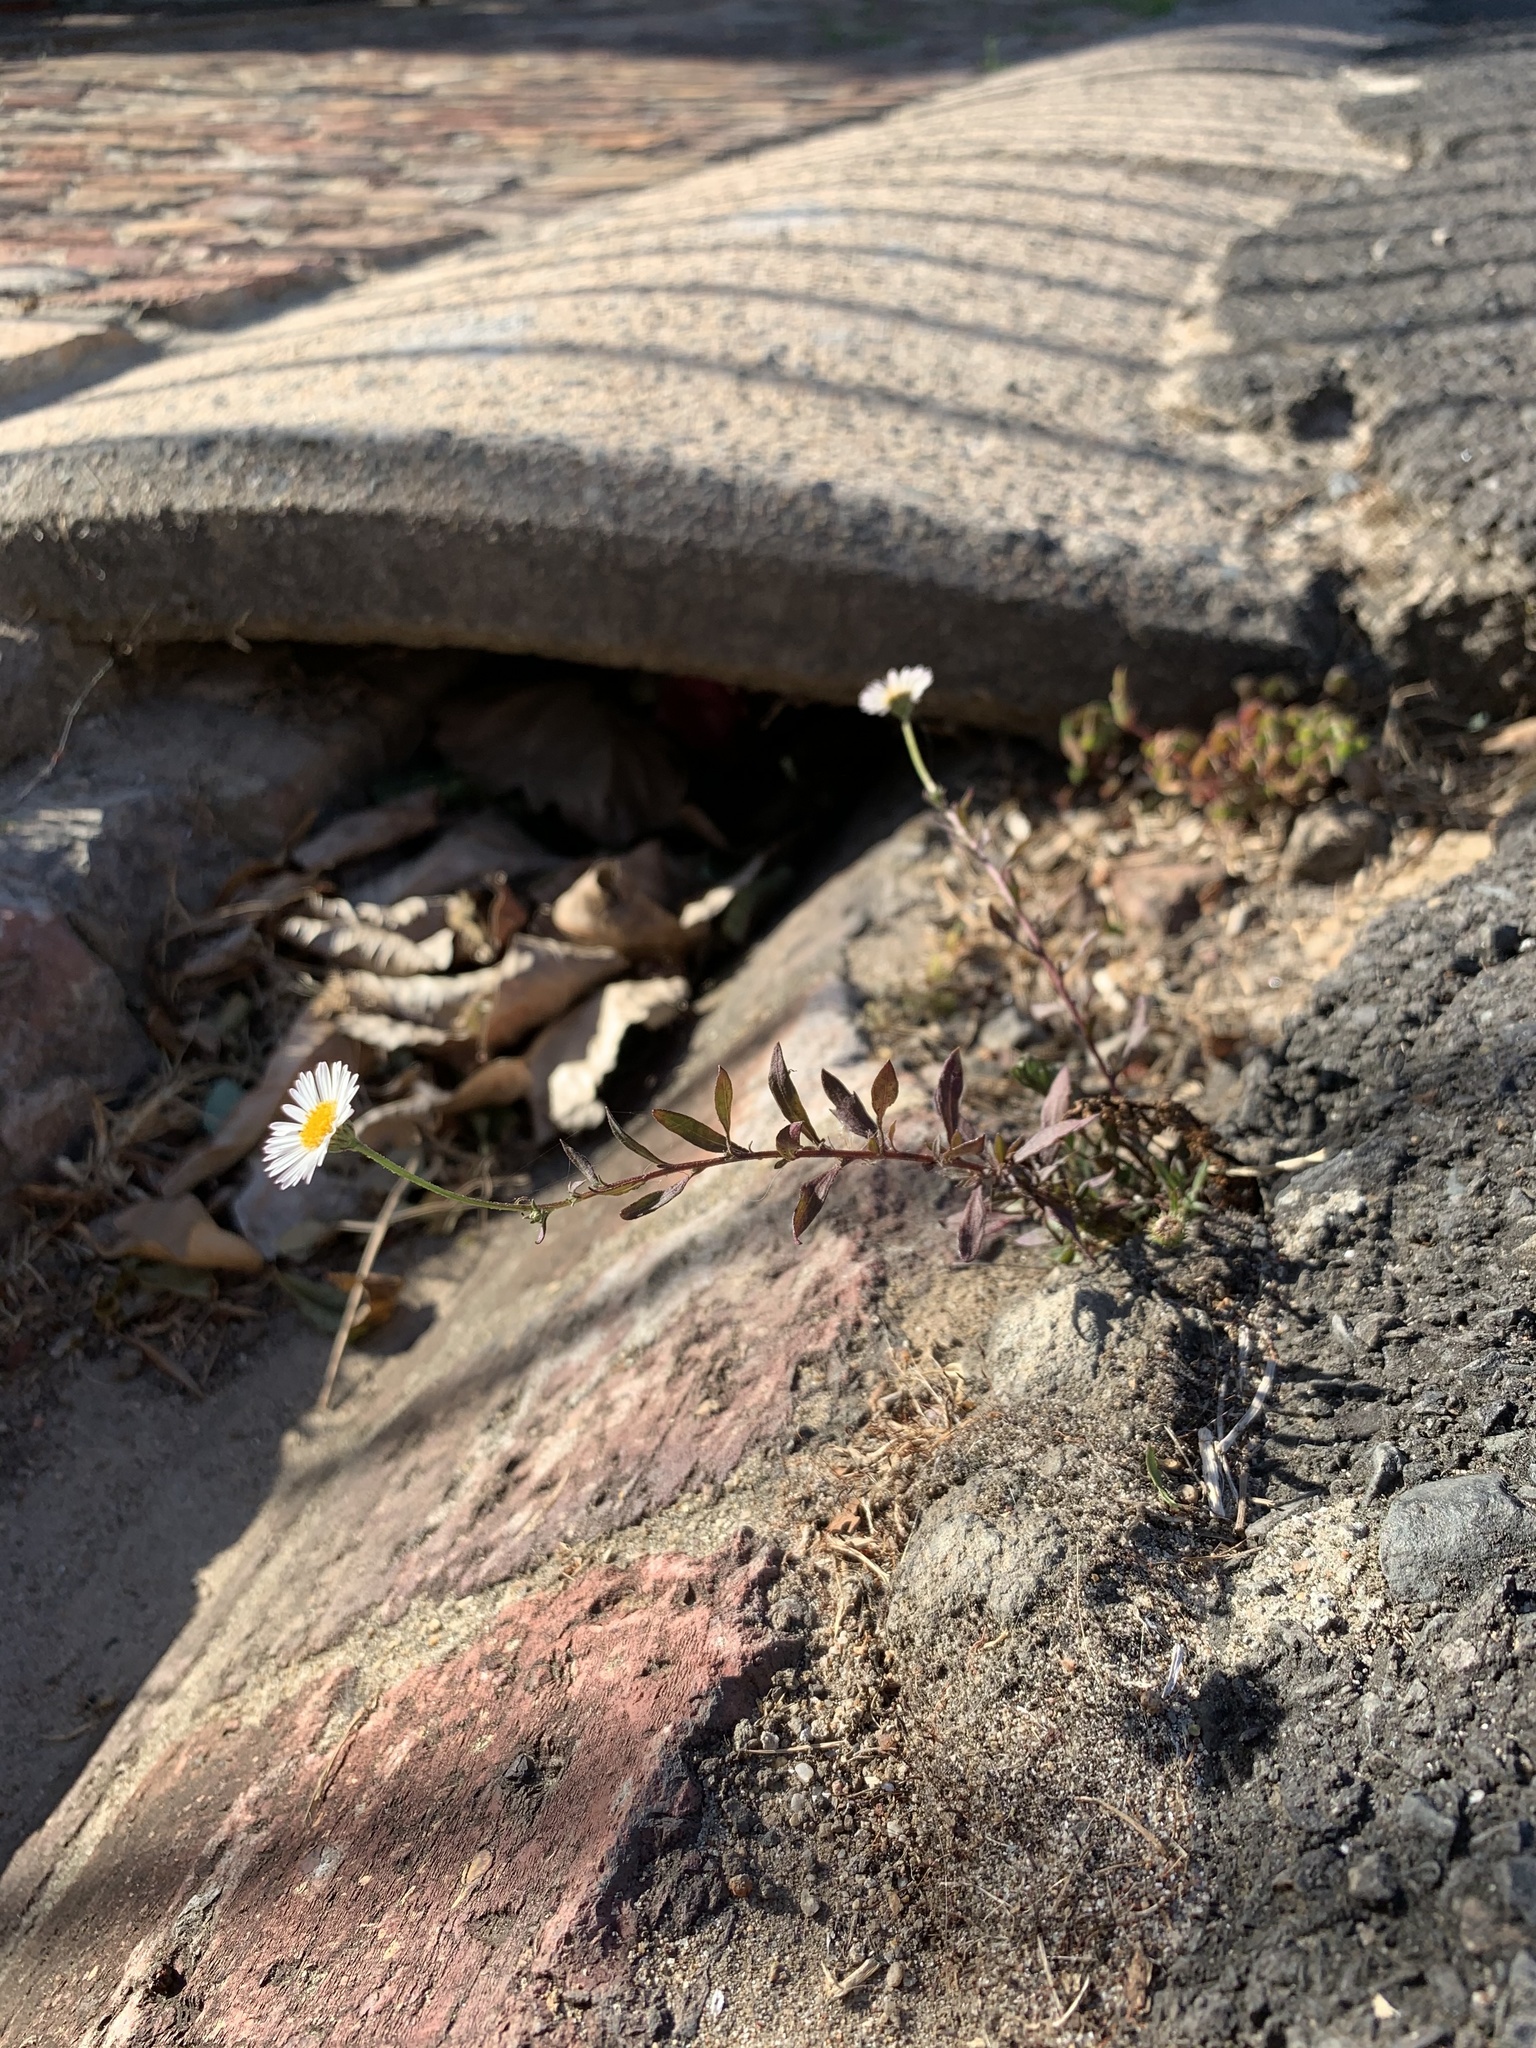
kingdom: Plantae
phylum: Tracheophyta
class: Magnoliopsida
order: Asterales
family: Asteraceae
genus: Erigeron
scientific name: Erigeron karvinskianus
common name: Mexican fleabane
